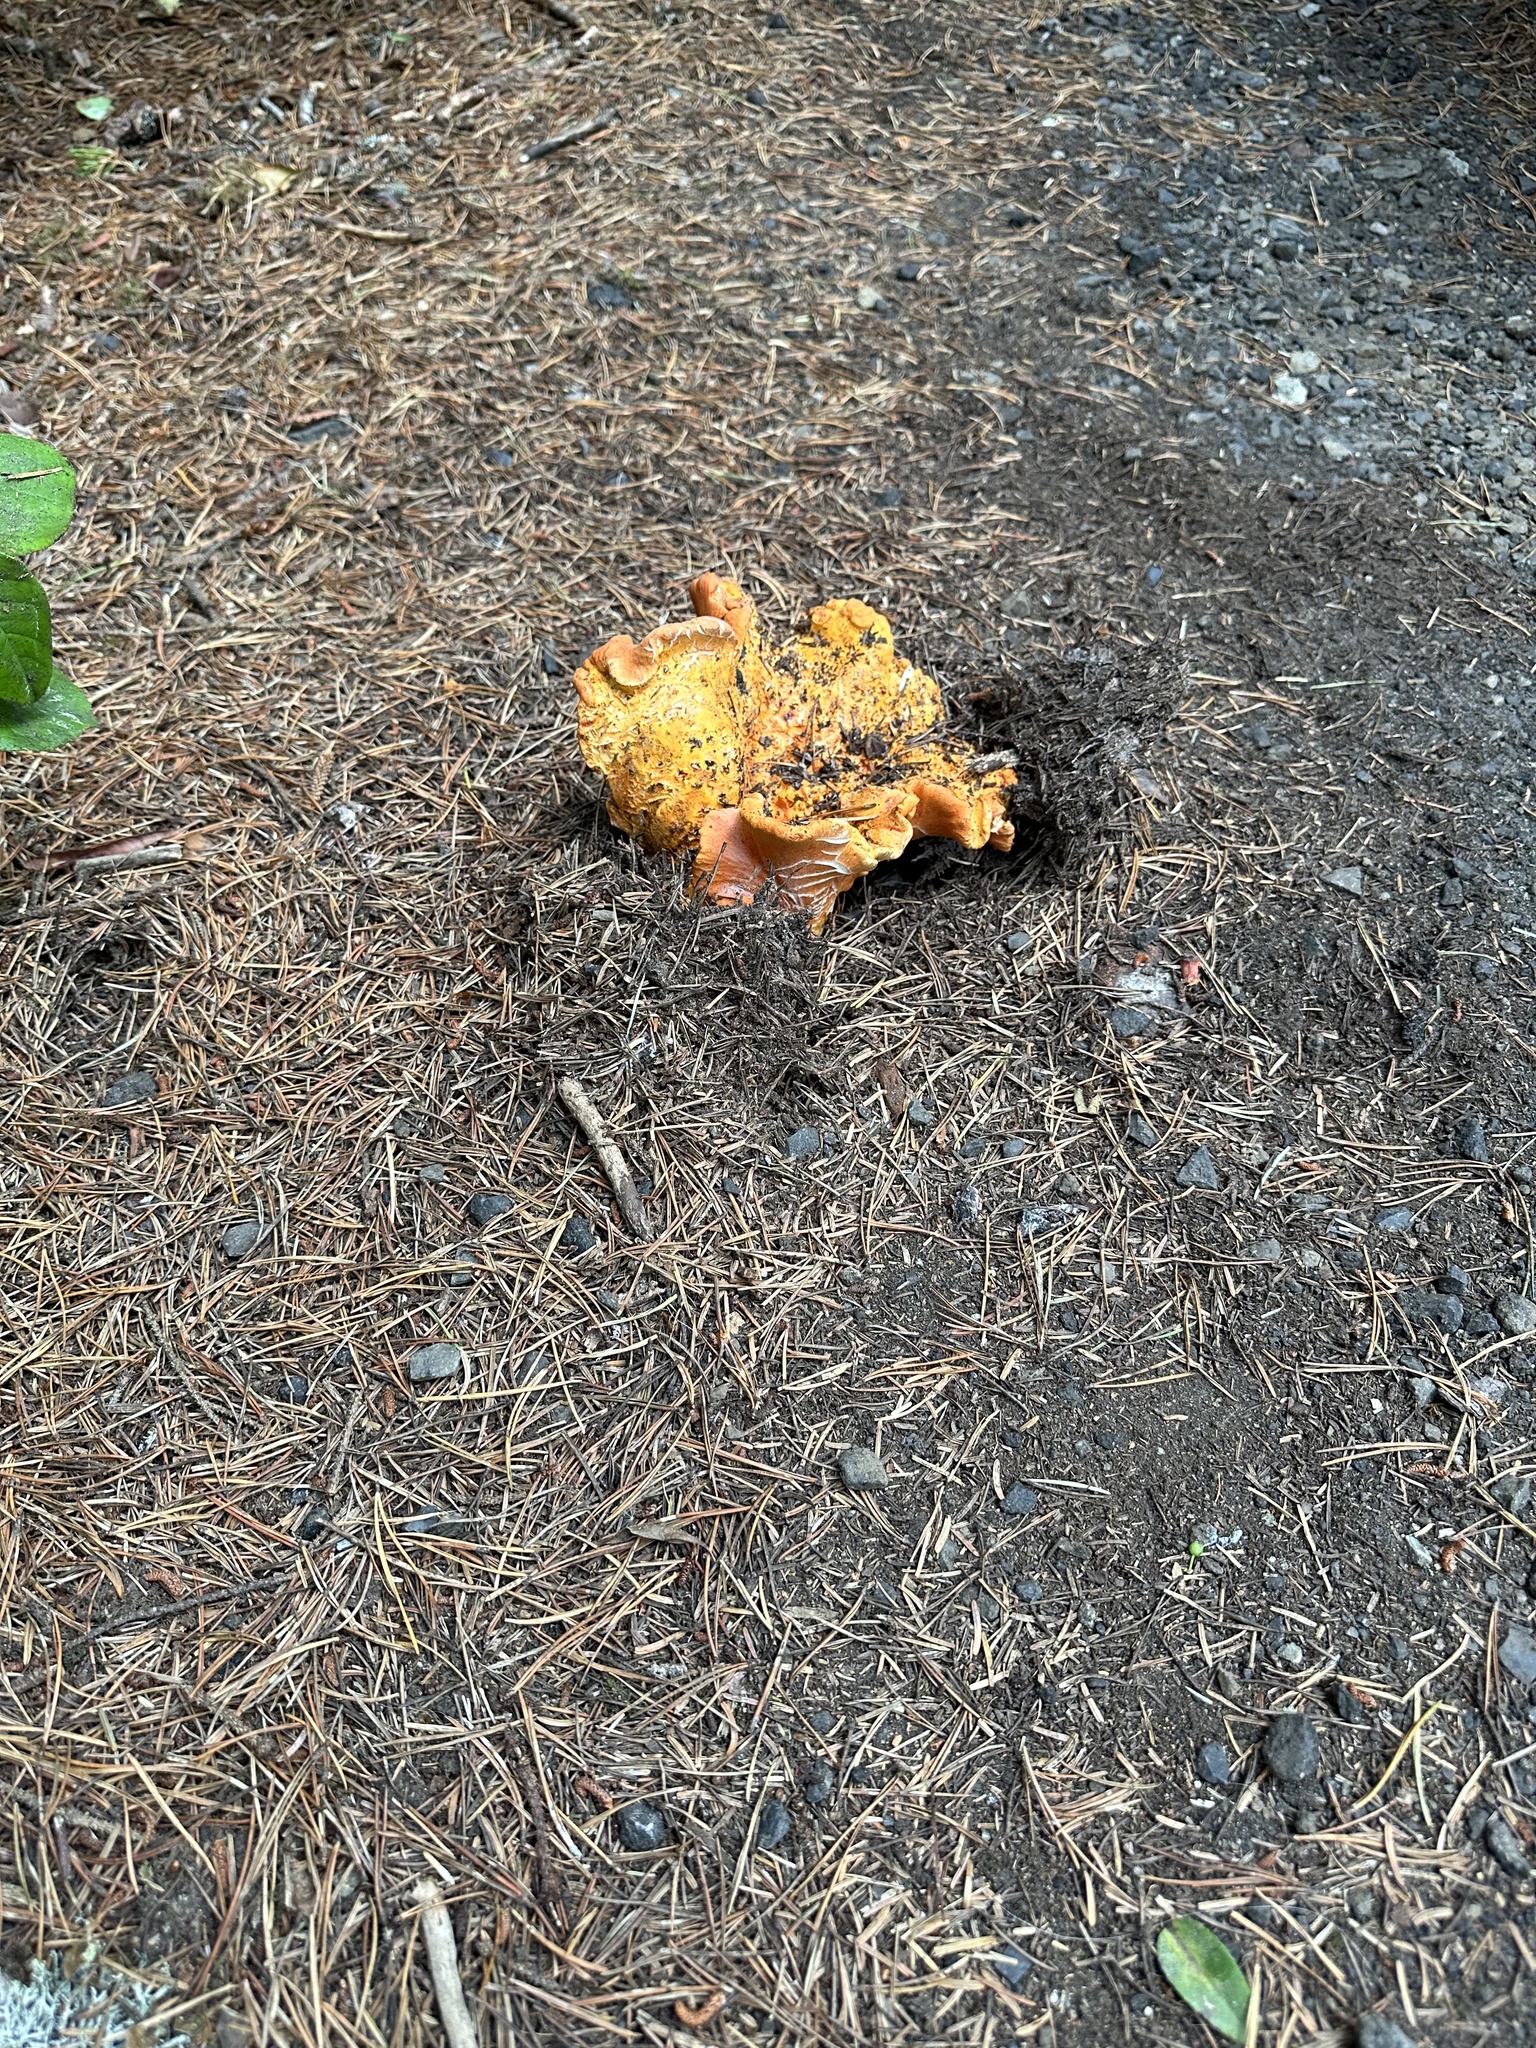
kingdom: Fungi
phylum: Ascomycota
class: Sordariomycetes
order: Hypocreales
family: Hypocreaceae
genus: Hypomyces
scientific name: Hypomyces lactifluorum
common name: Lobster mushroom
